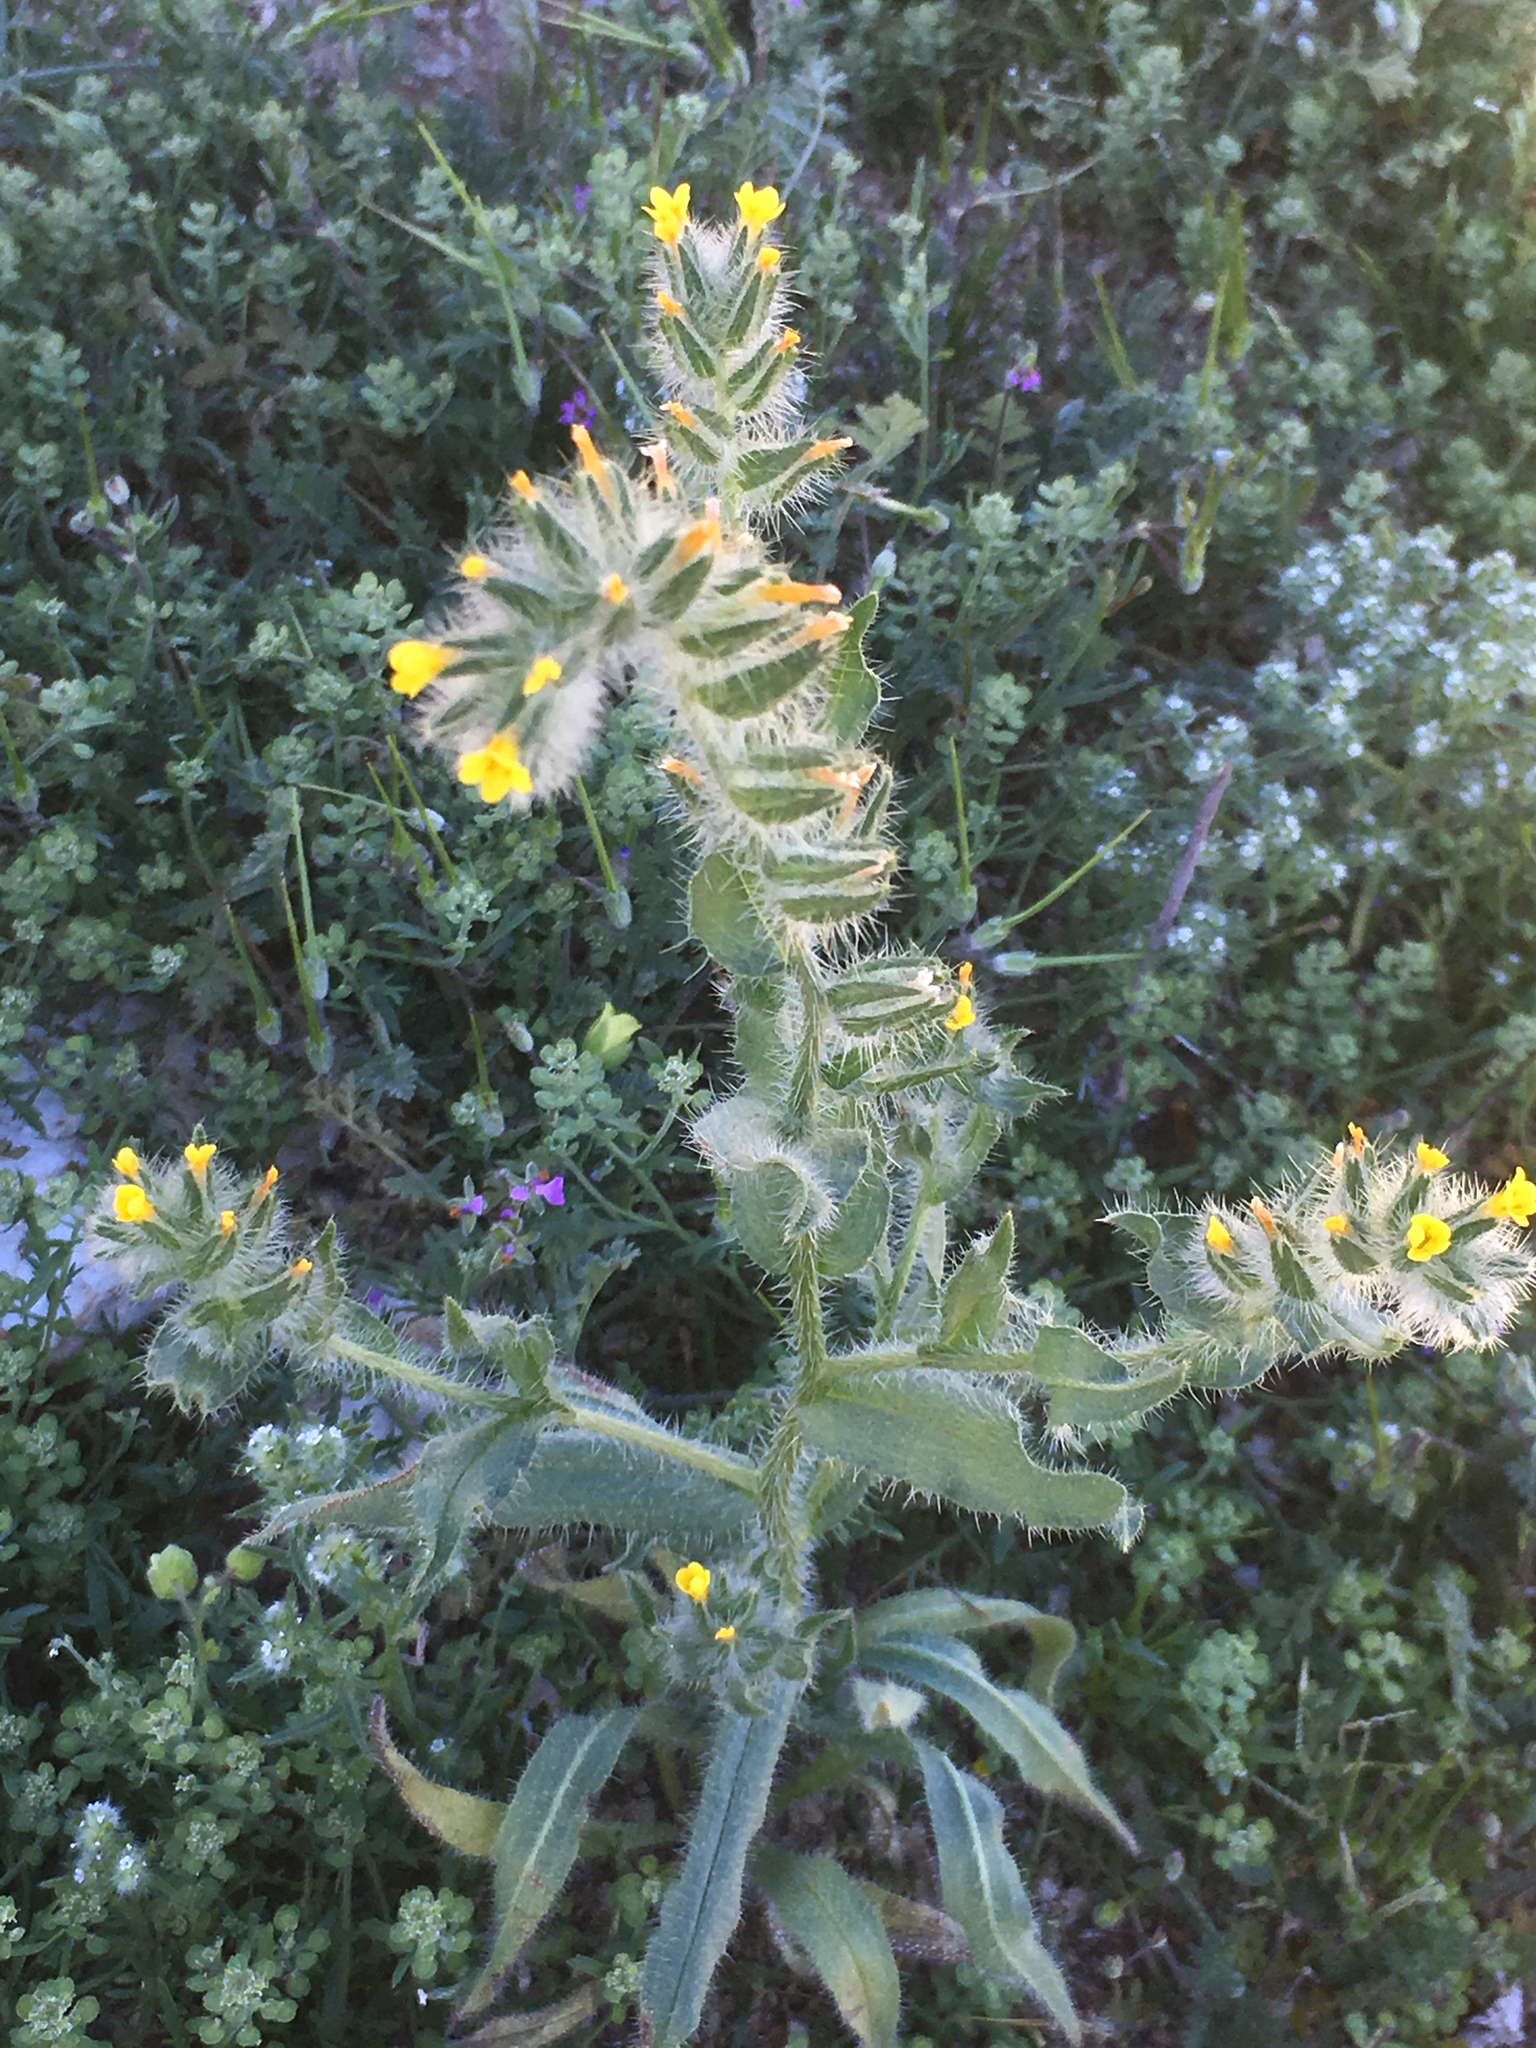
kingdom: Plantae
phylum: Tracheophyta
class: Magnoliopsida
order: Boraginales
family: Boraginaceae
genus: Amsinckia
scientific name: Amsinckia tessellata
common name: Tessellate fiddleneck
